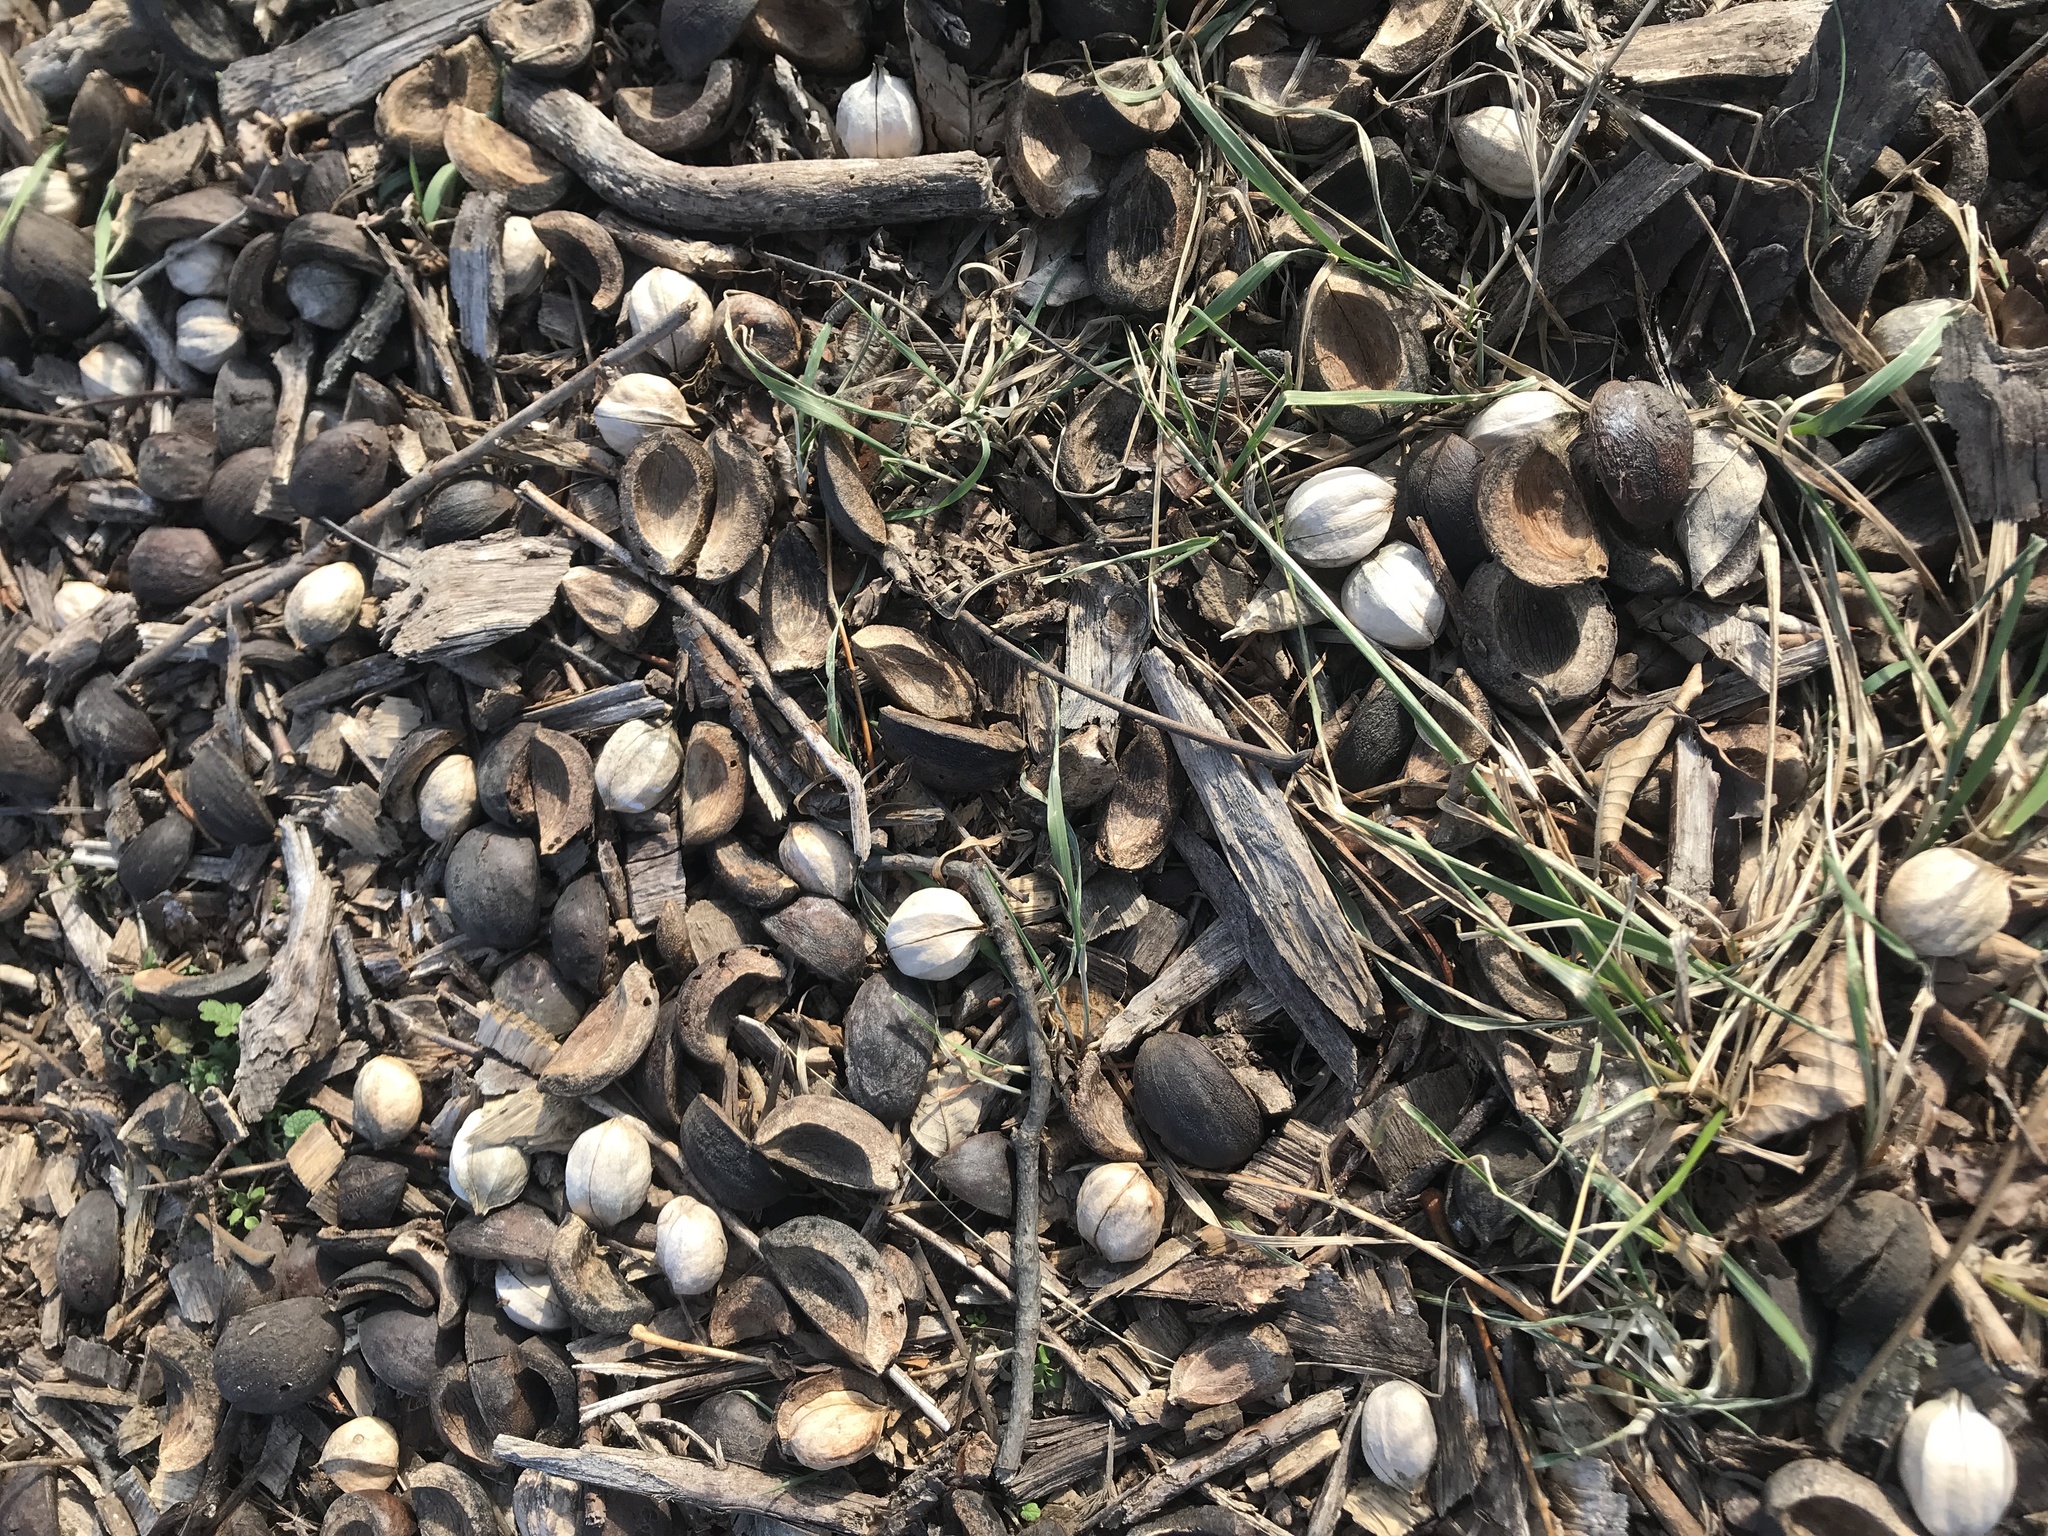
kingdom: Plantae
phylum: Tracheophyta
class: Magnoliopsida
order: Fagales
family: Juglandaceae
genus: Carya
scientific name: Carya ovata
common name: Shagbark hickory
